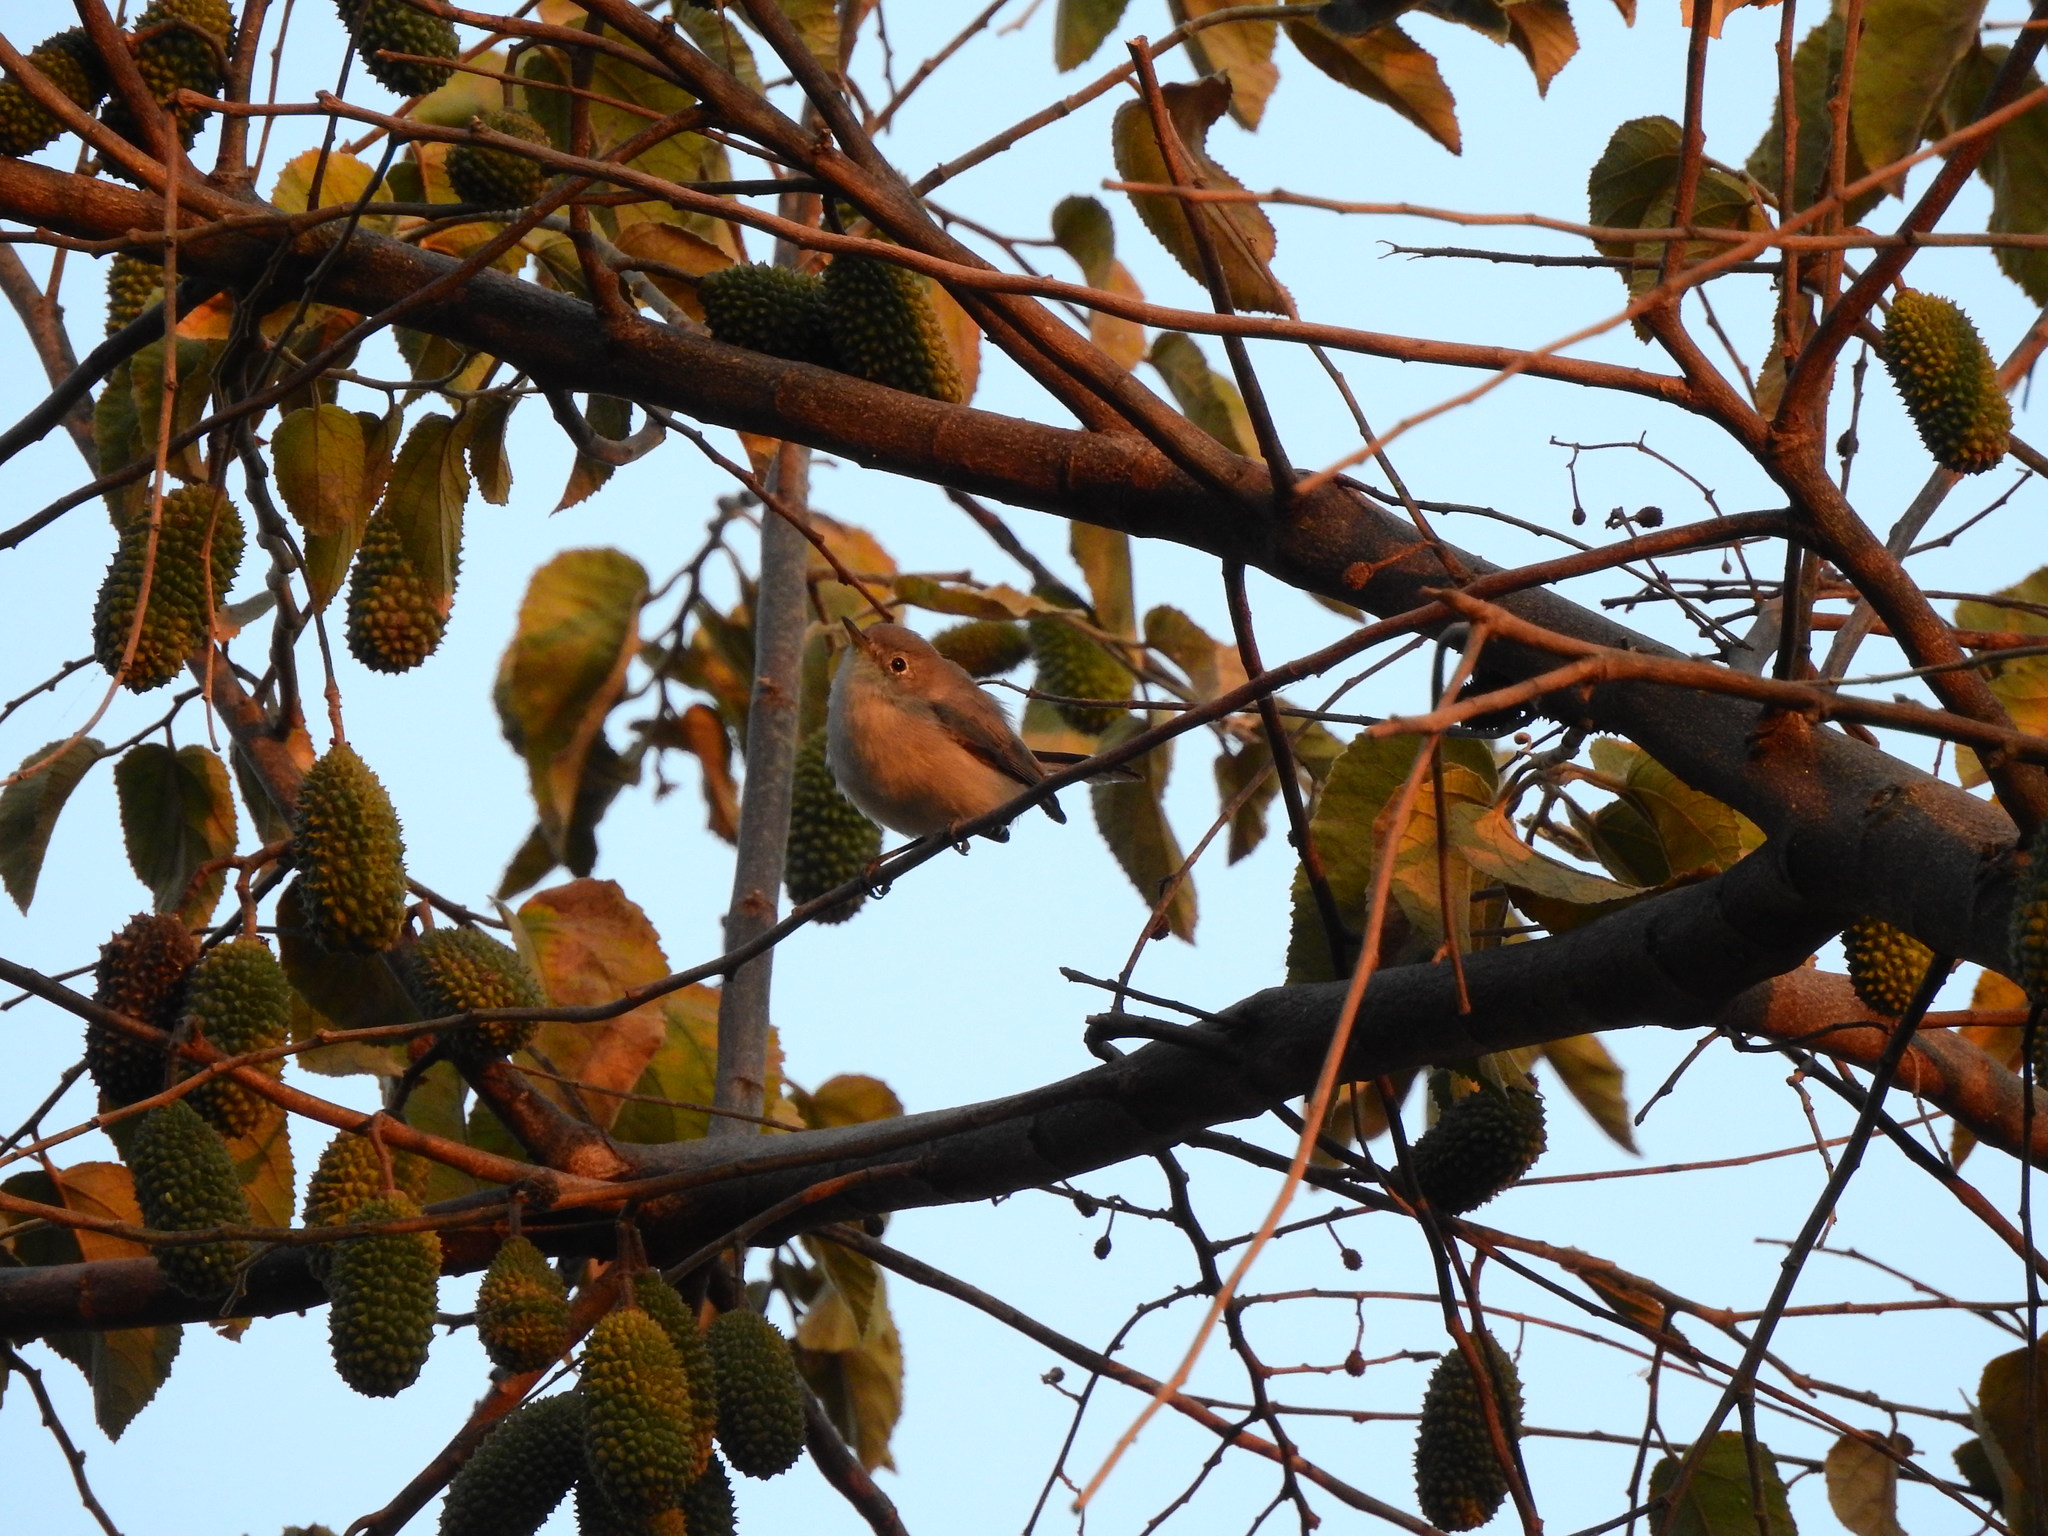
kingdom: Animalia
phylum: Chordata
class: Aves
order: Passeriformes
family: Polioptilidae
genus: Polioptila
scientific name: Polioptila caerulea
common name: Blue-gray gnatcatcher
